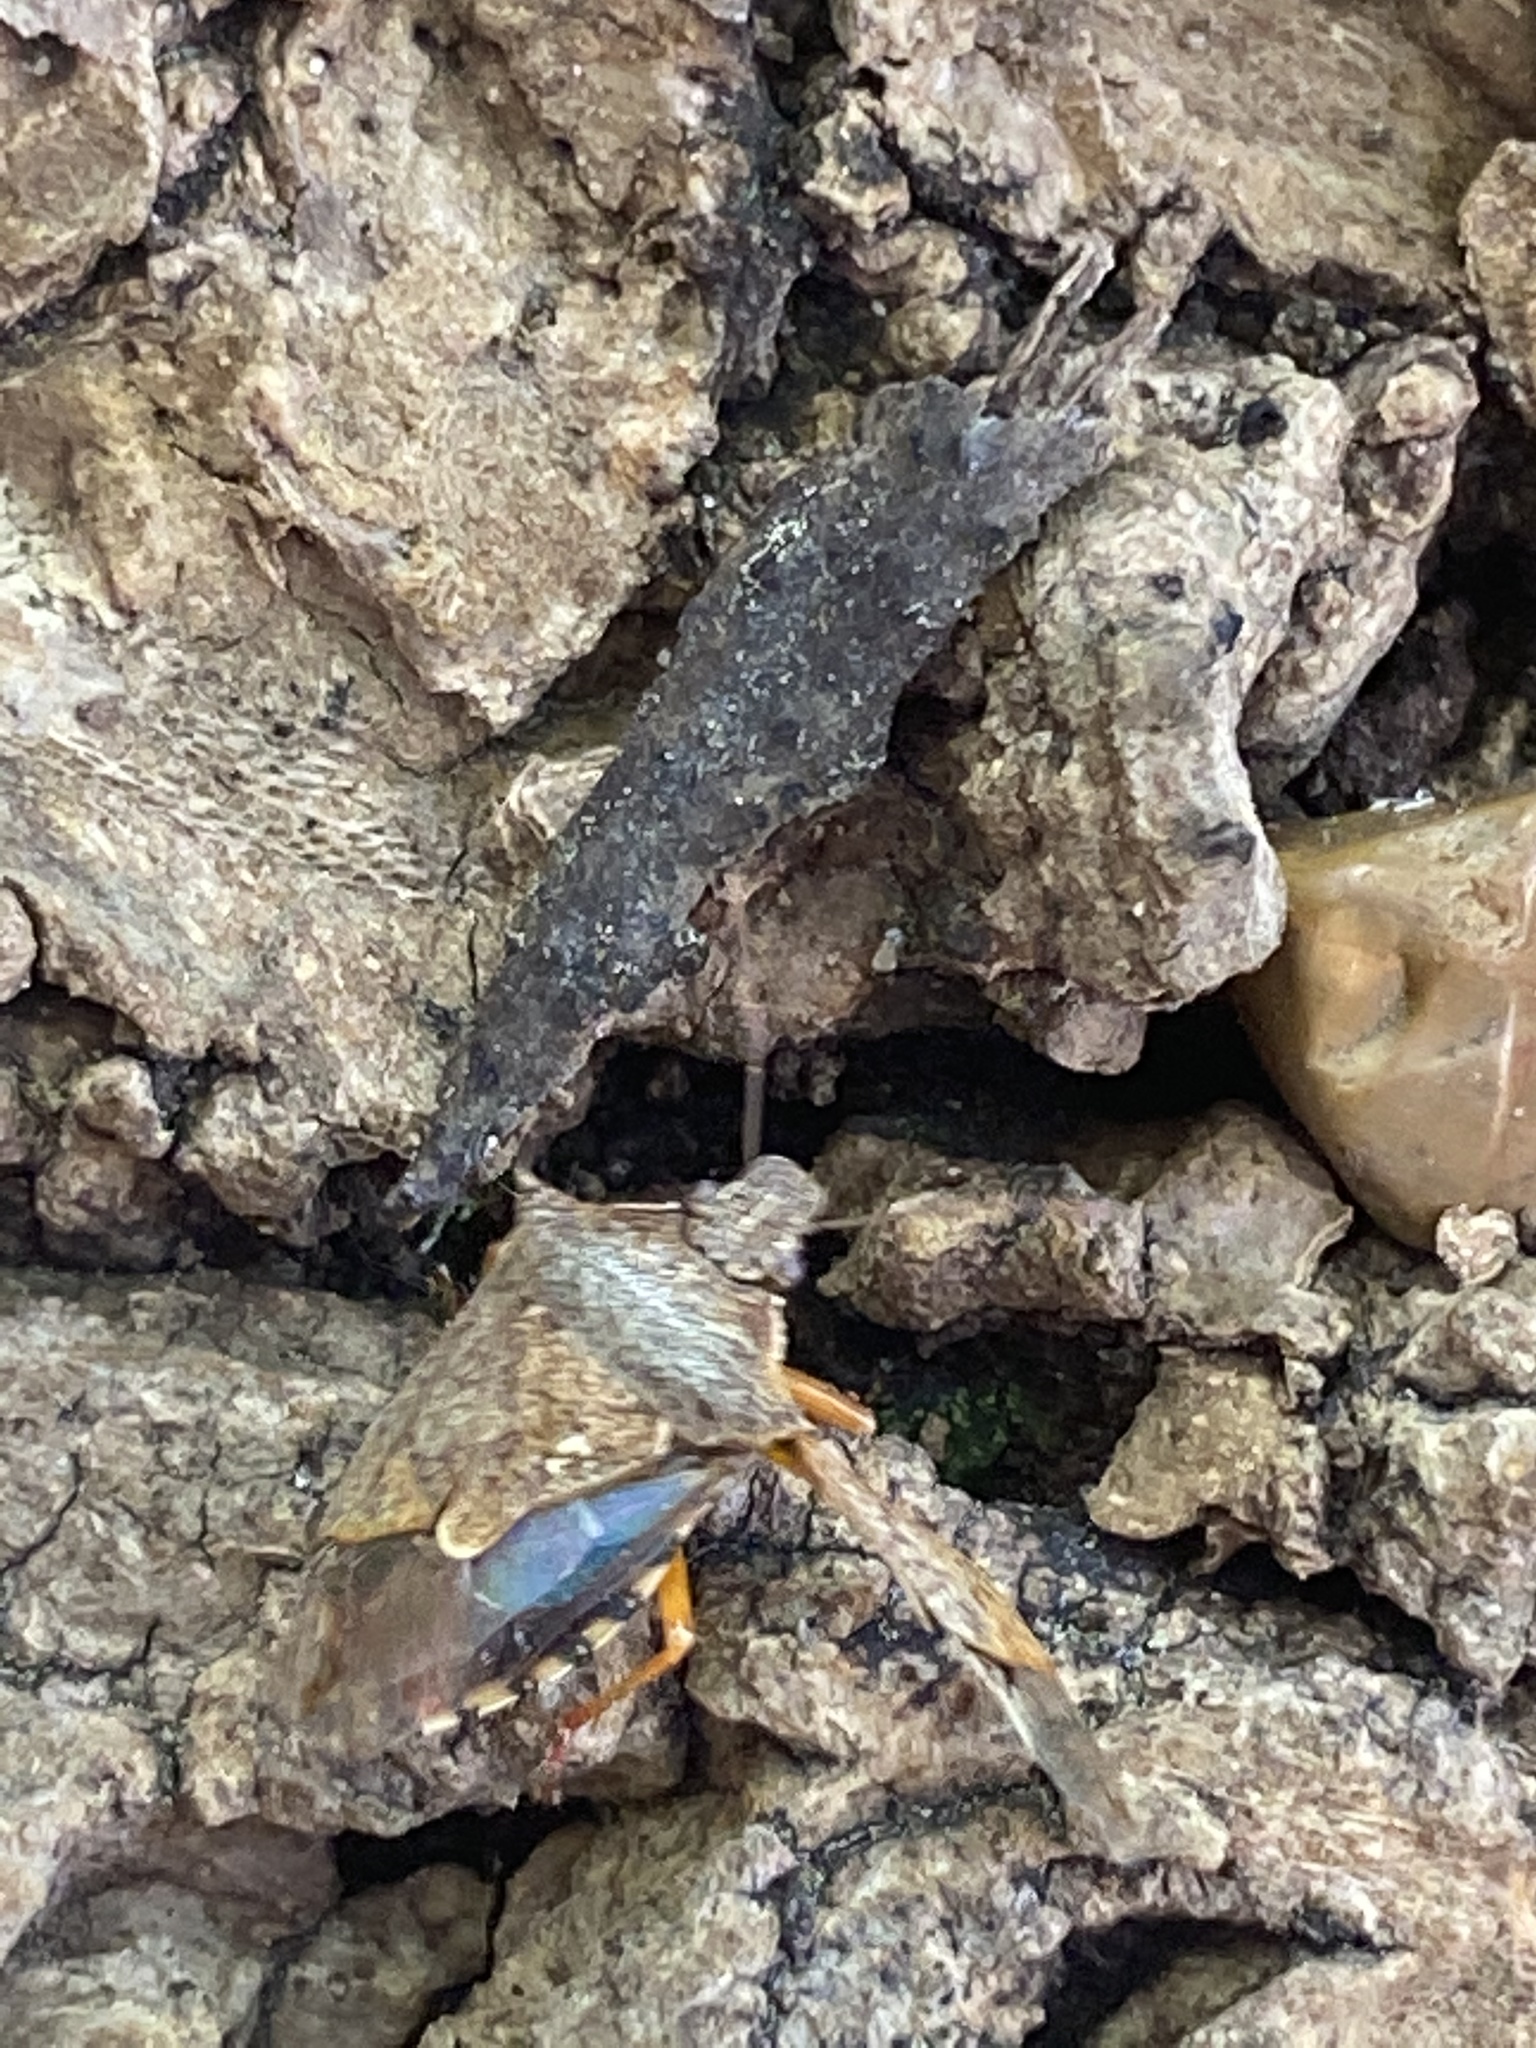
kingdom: Animalia
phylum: Arthropoda
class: Insecta
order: Hemiptera
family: Pentatomidae
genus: Podisus
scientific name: Podisus maculiventris
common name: Spined soldier bug
